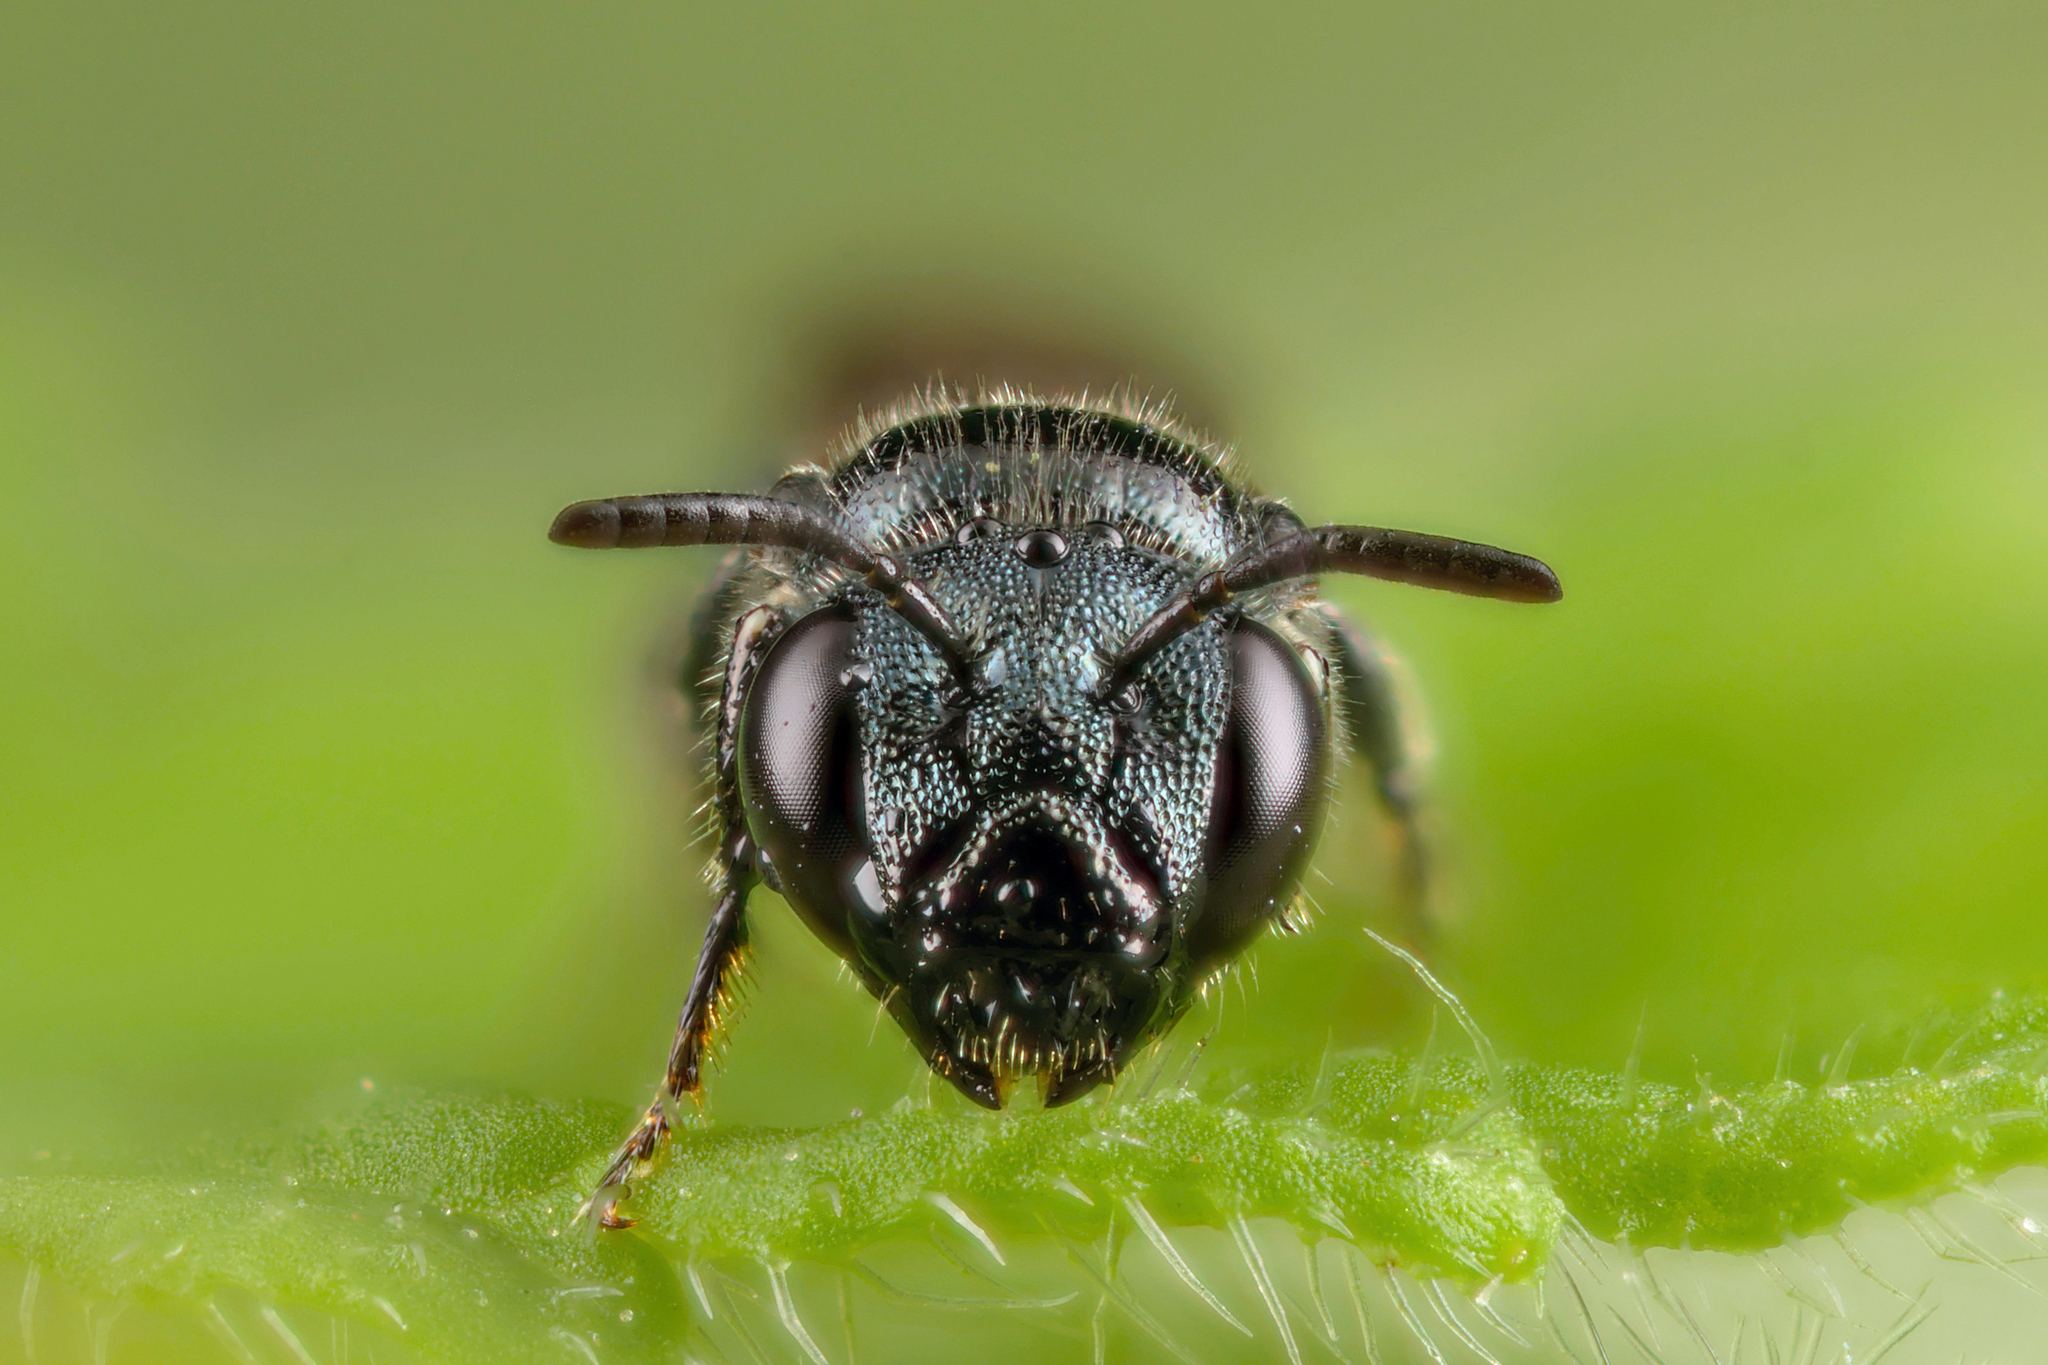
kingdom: Animalia
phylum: Arthropoda
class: Insecta
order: Hymenoptera
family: Apidae
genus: Ceratina
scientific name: Ceratina cyanea
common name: Little blue carpenter bee
